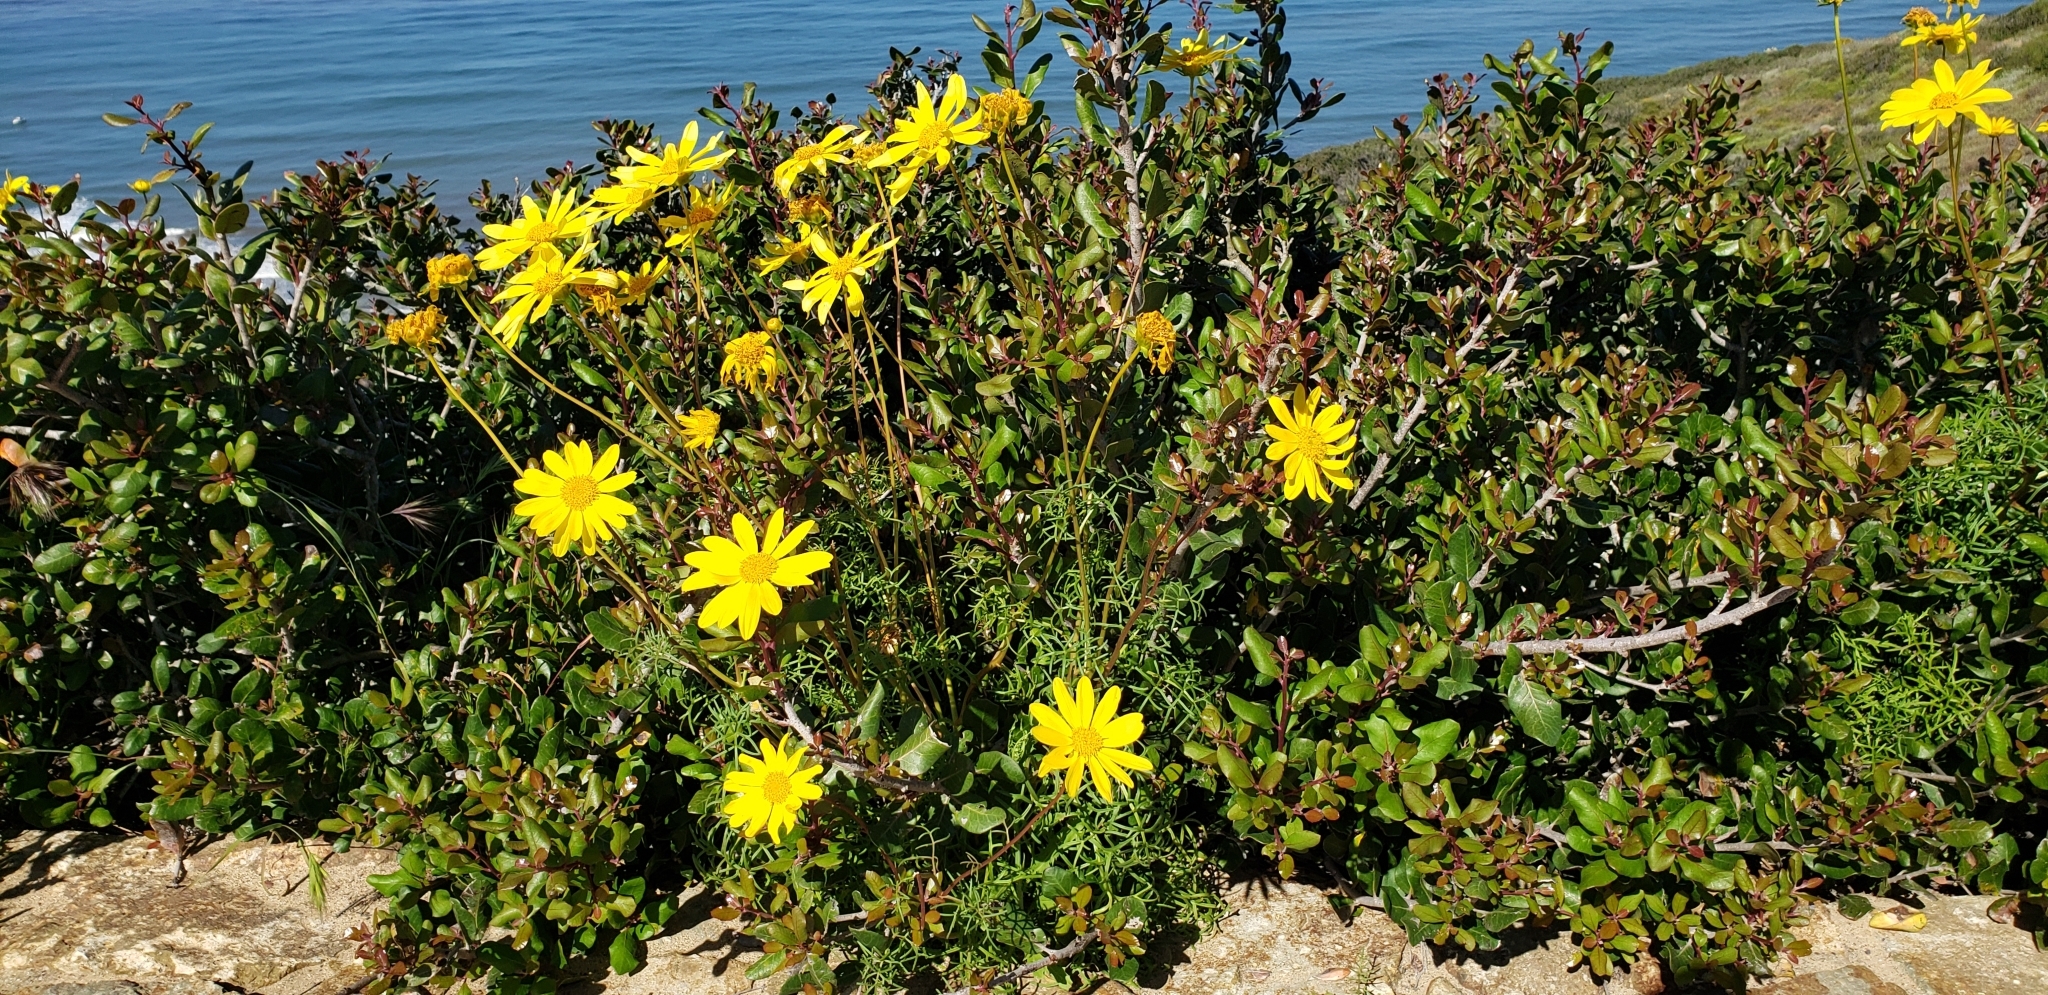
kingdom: Plantae
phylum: Tracheophyta
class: Magnoliopsida
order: Asterales
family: Asteraceae
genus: Coreopsis
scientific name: Coreopsis maritima
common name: Sea-dahlia
